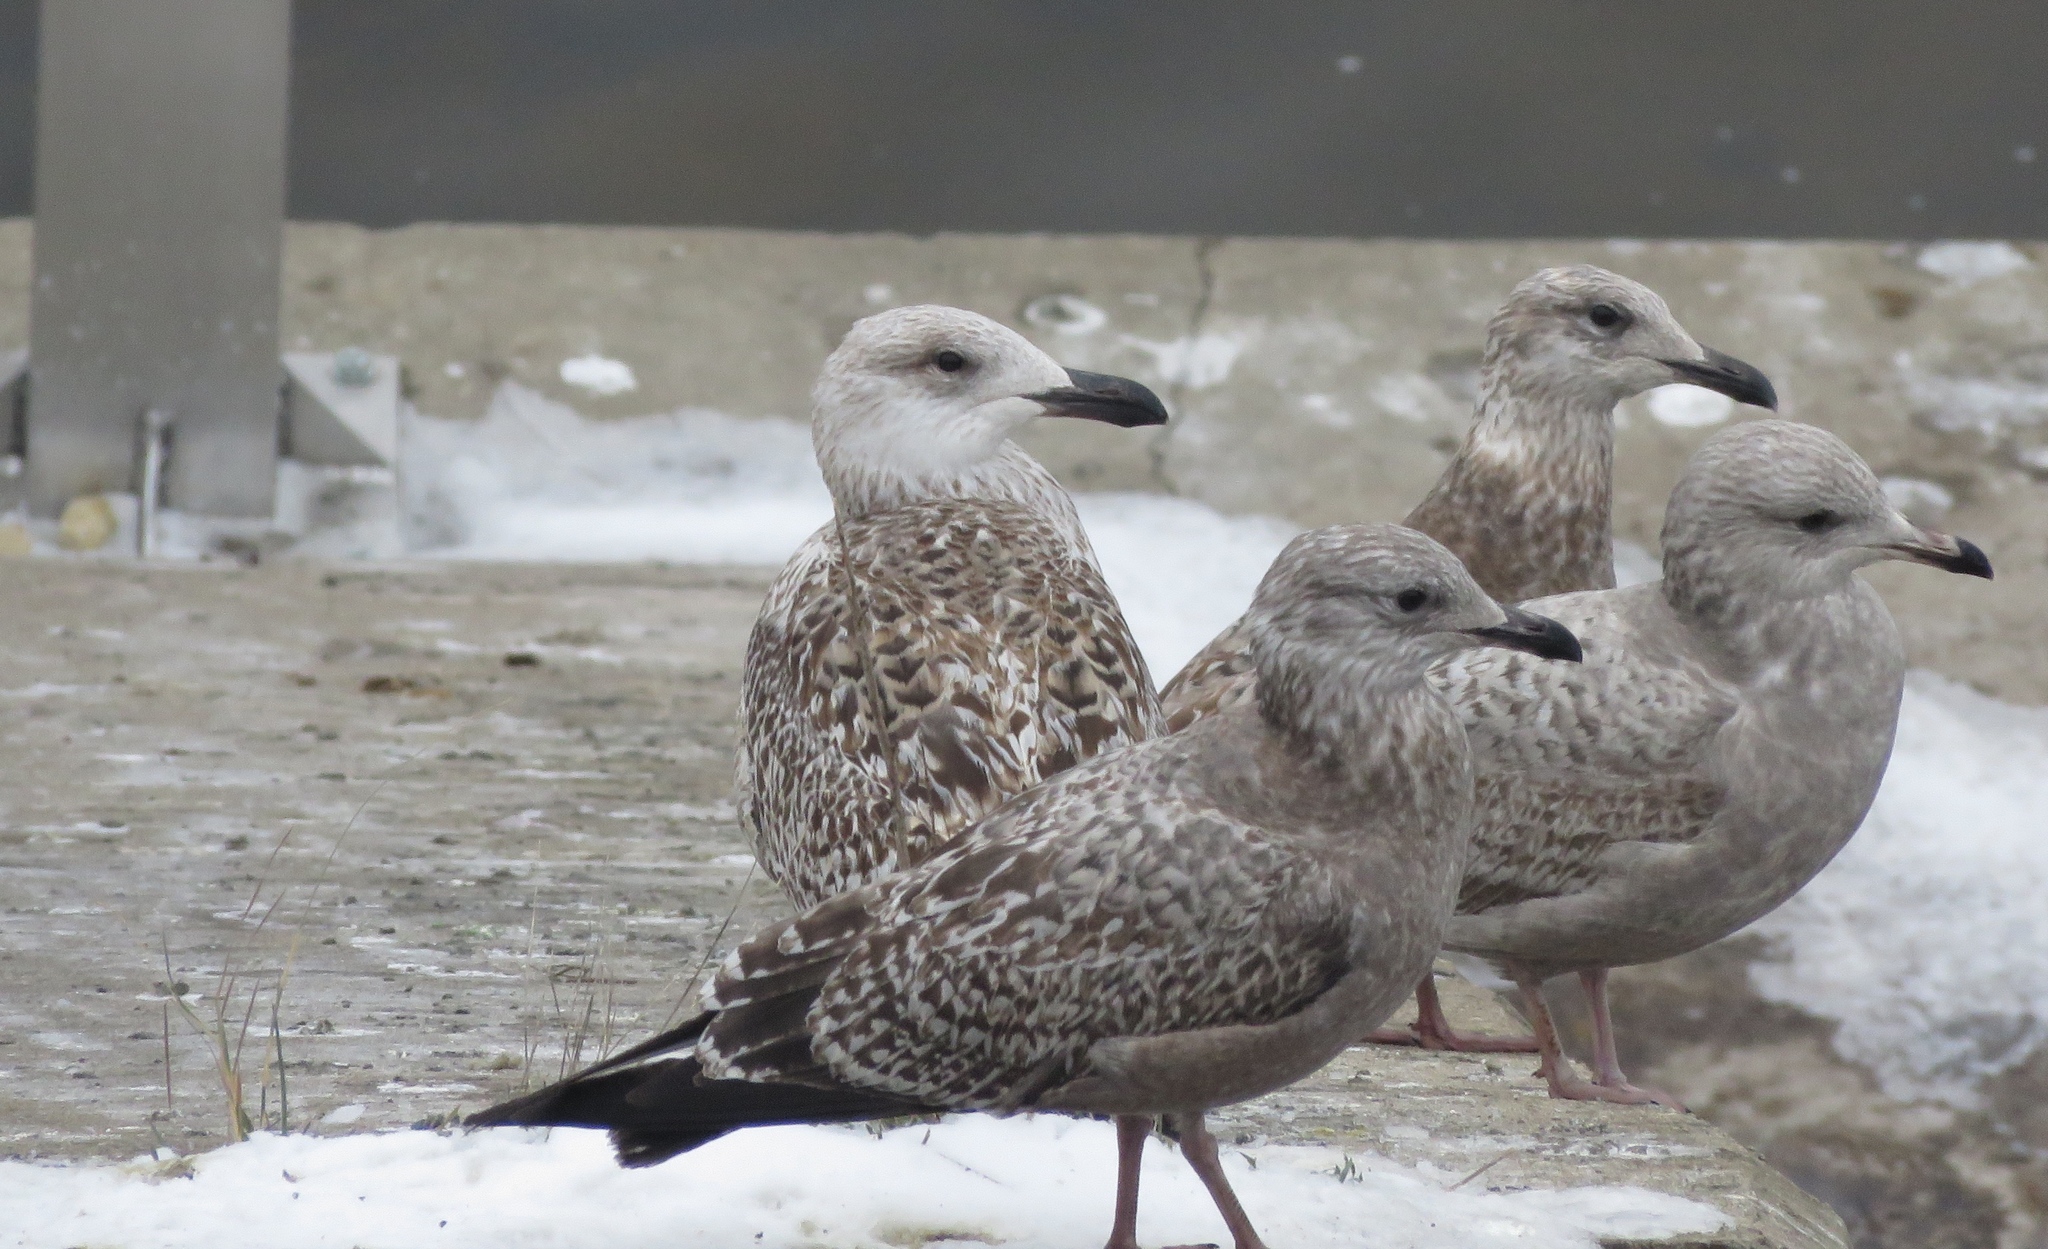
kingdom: Animalia
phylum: Chordata
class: Aves
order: Charadriiformes
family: Laridae
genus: Larus
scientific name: Larus marinus
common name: Great black-backed gull
